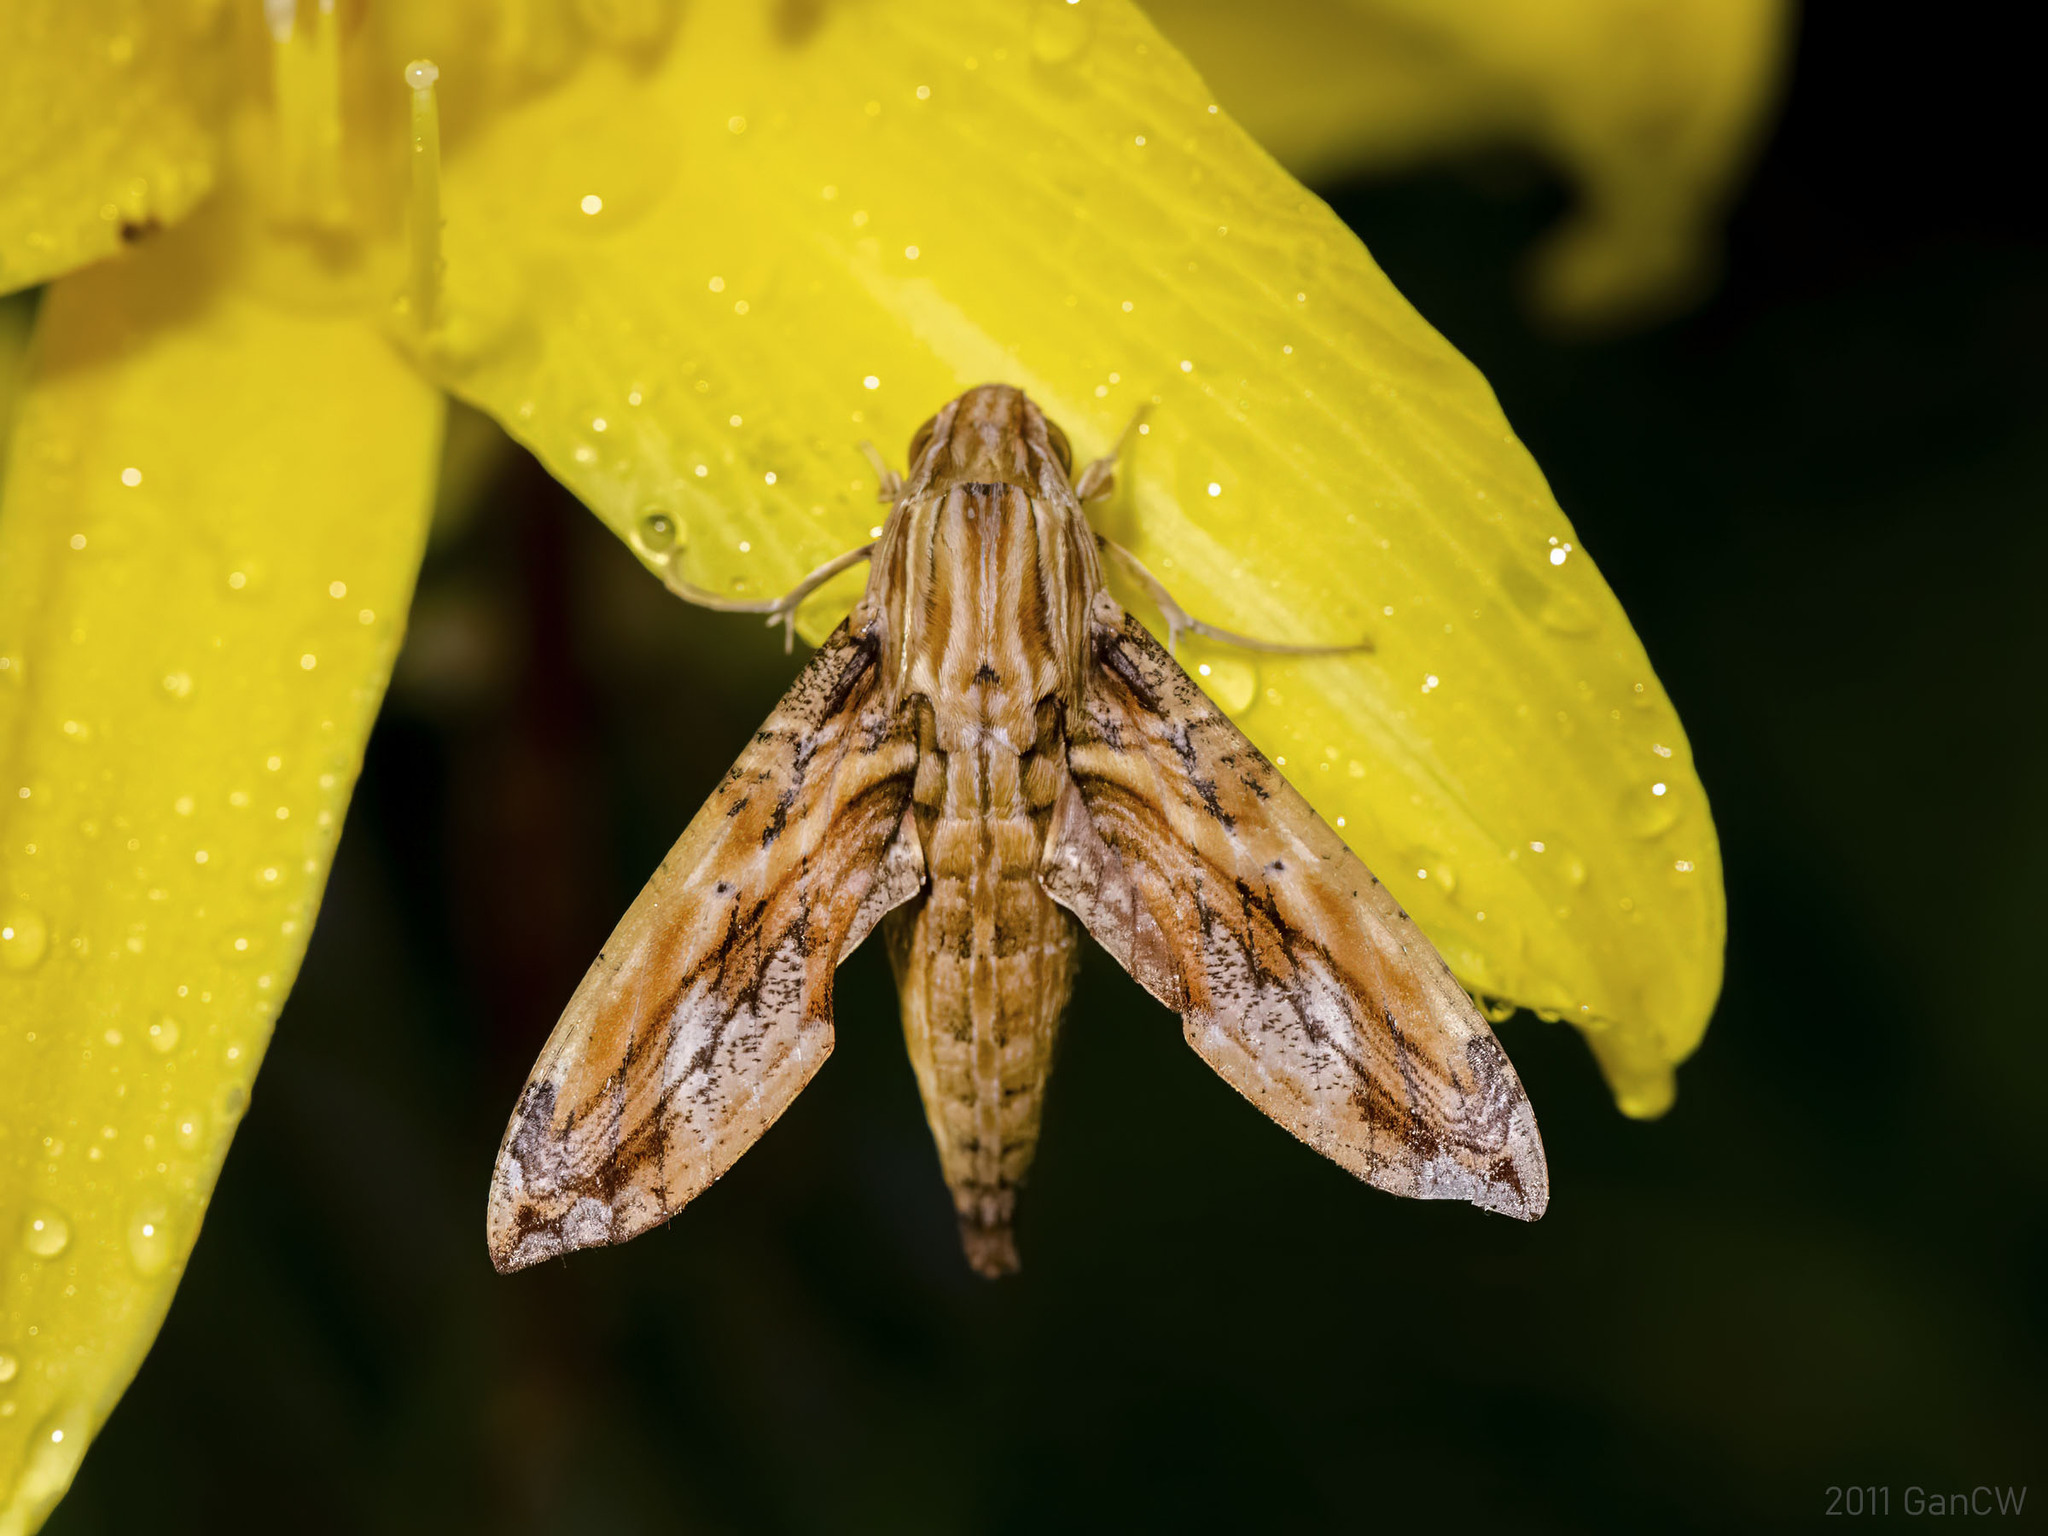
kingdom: Animalia
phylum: Arthropoda
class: Insecta
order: Lepidoptera
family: Sphingidae
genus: Eupanacra
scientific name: Eupanacra variolosa
